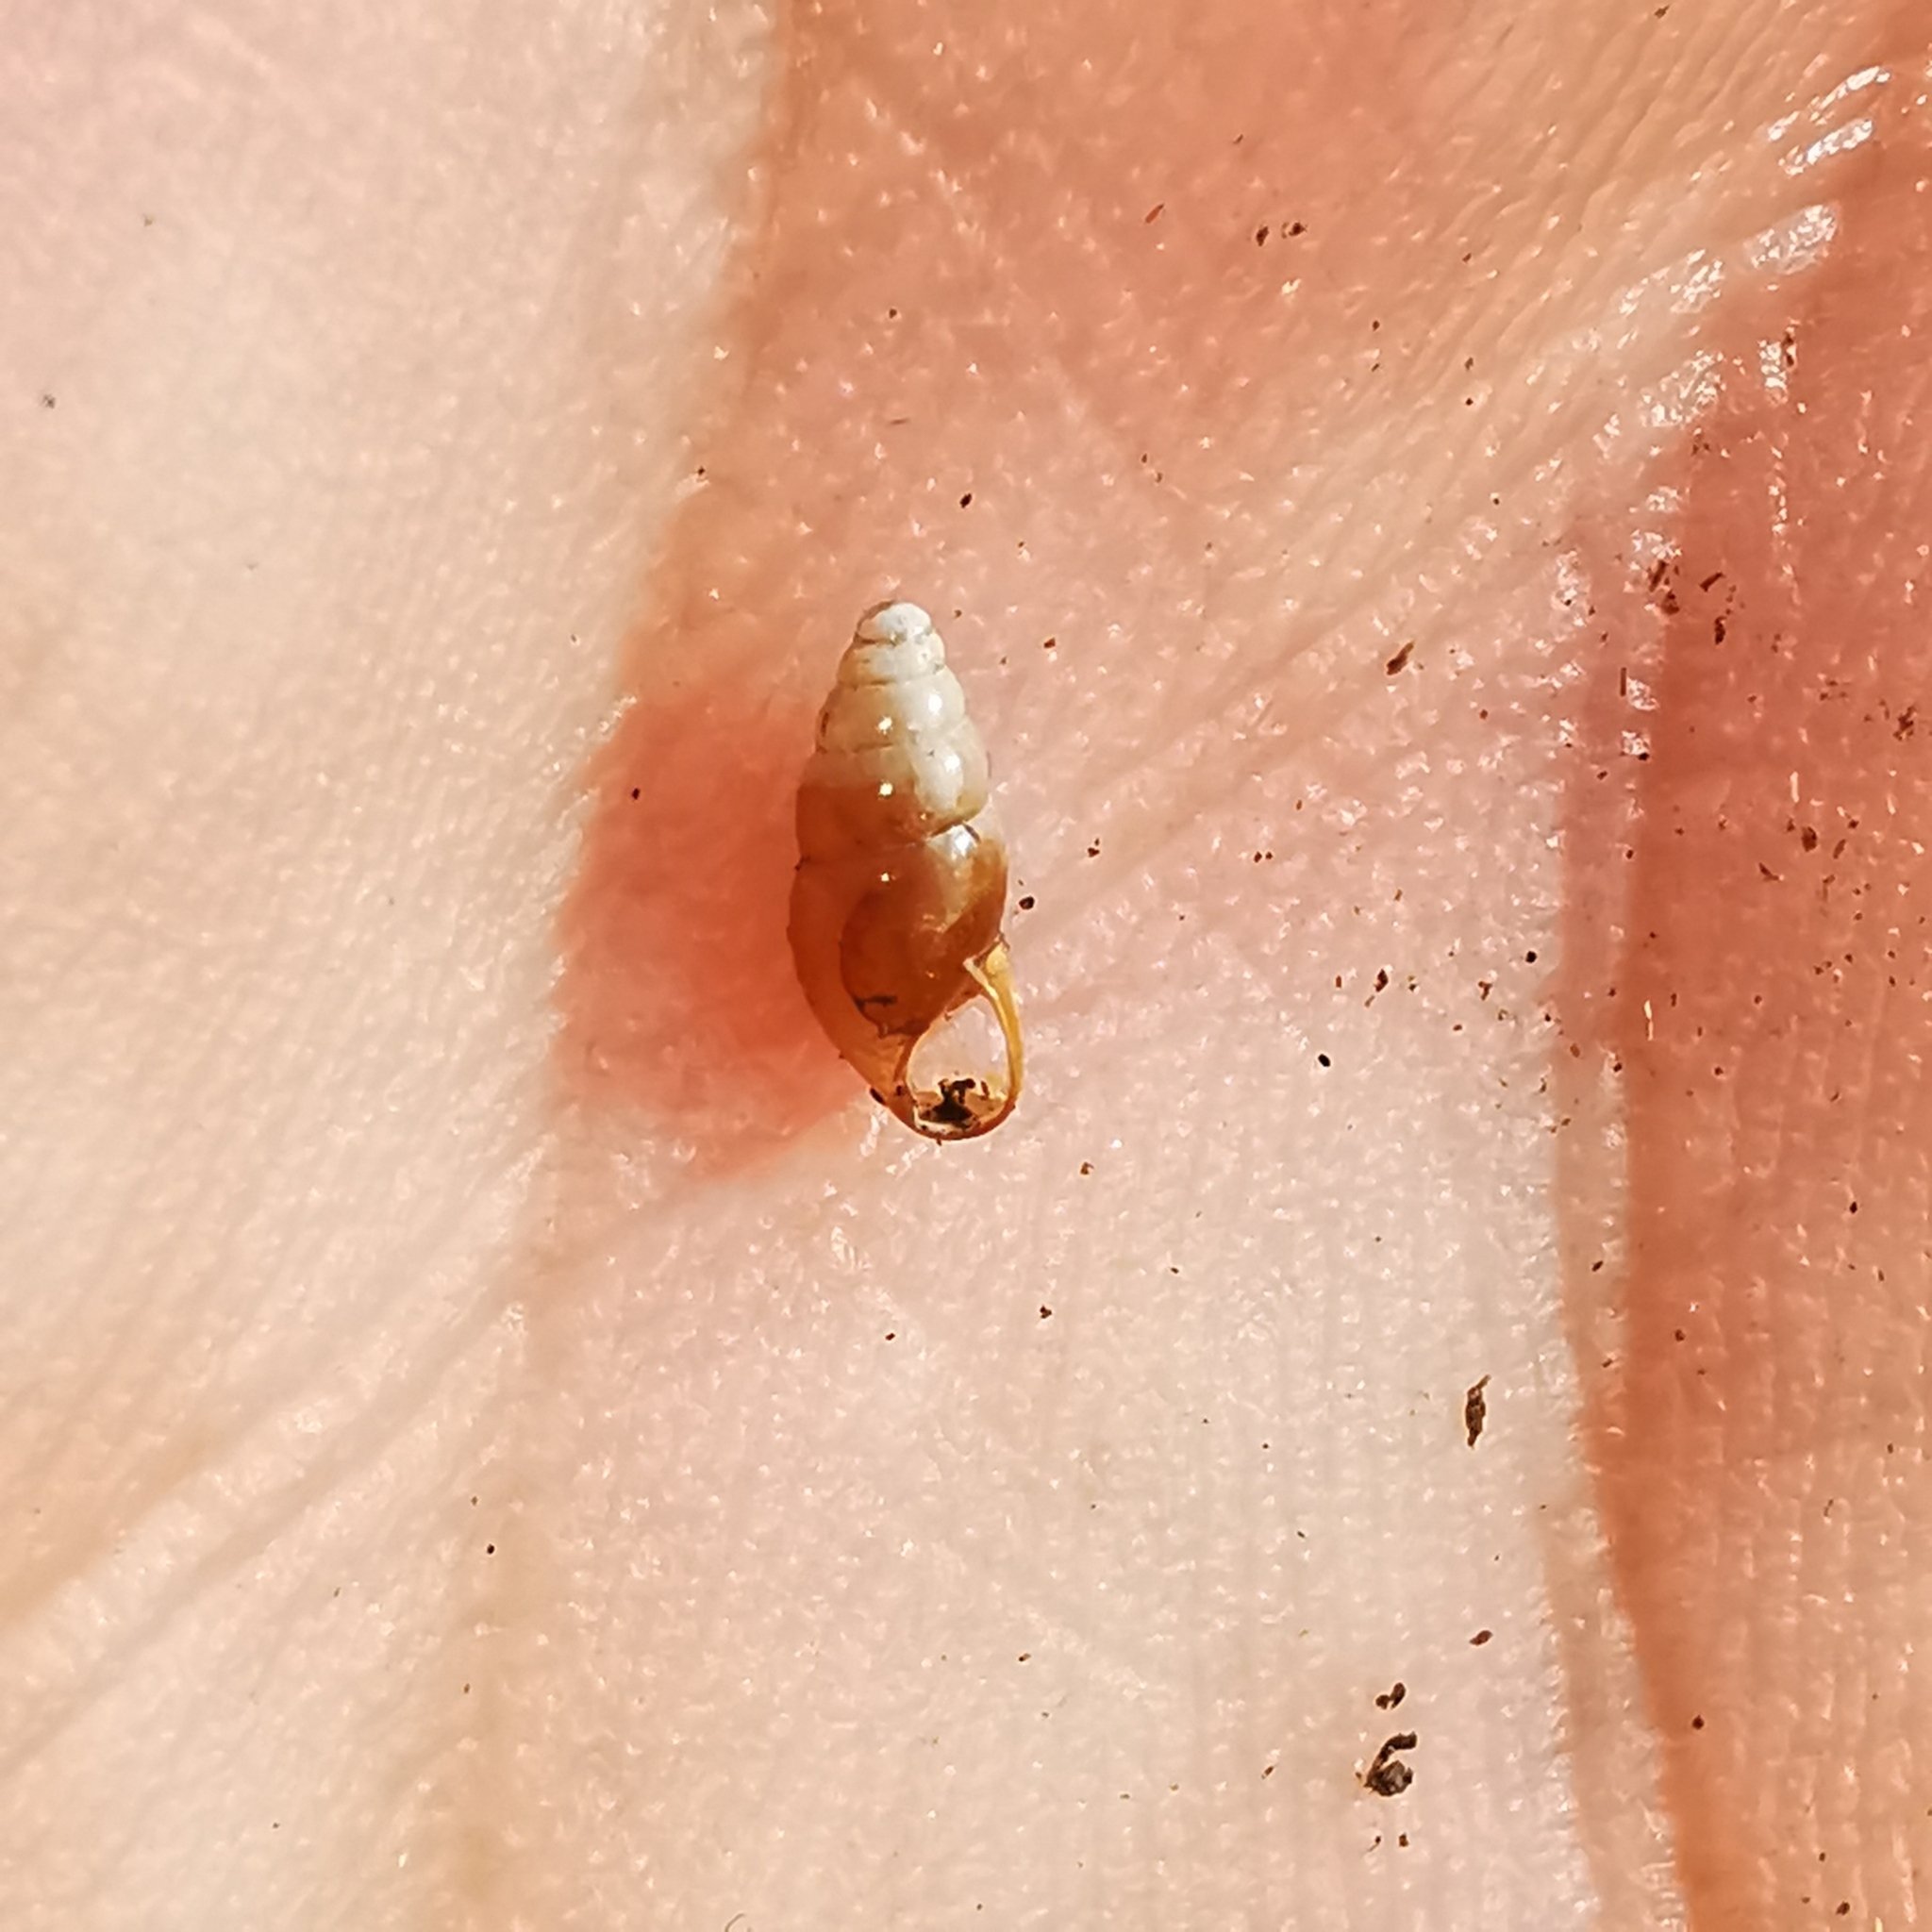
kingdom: Animalia
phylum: Mollusca
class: Gastropoda
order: Stylommatophora
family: Cochlicopidae
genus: Cochlicopa
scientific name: Cochlicopa lubrica
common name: Glossy pillar snail
